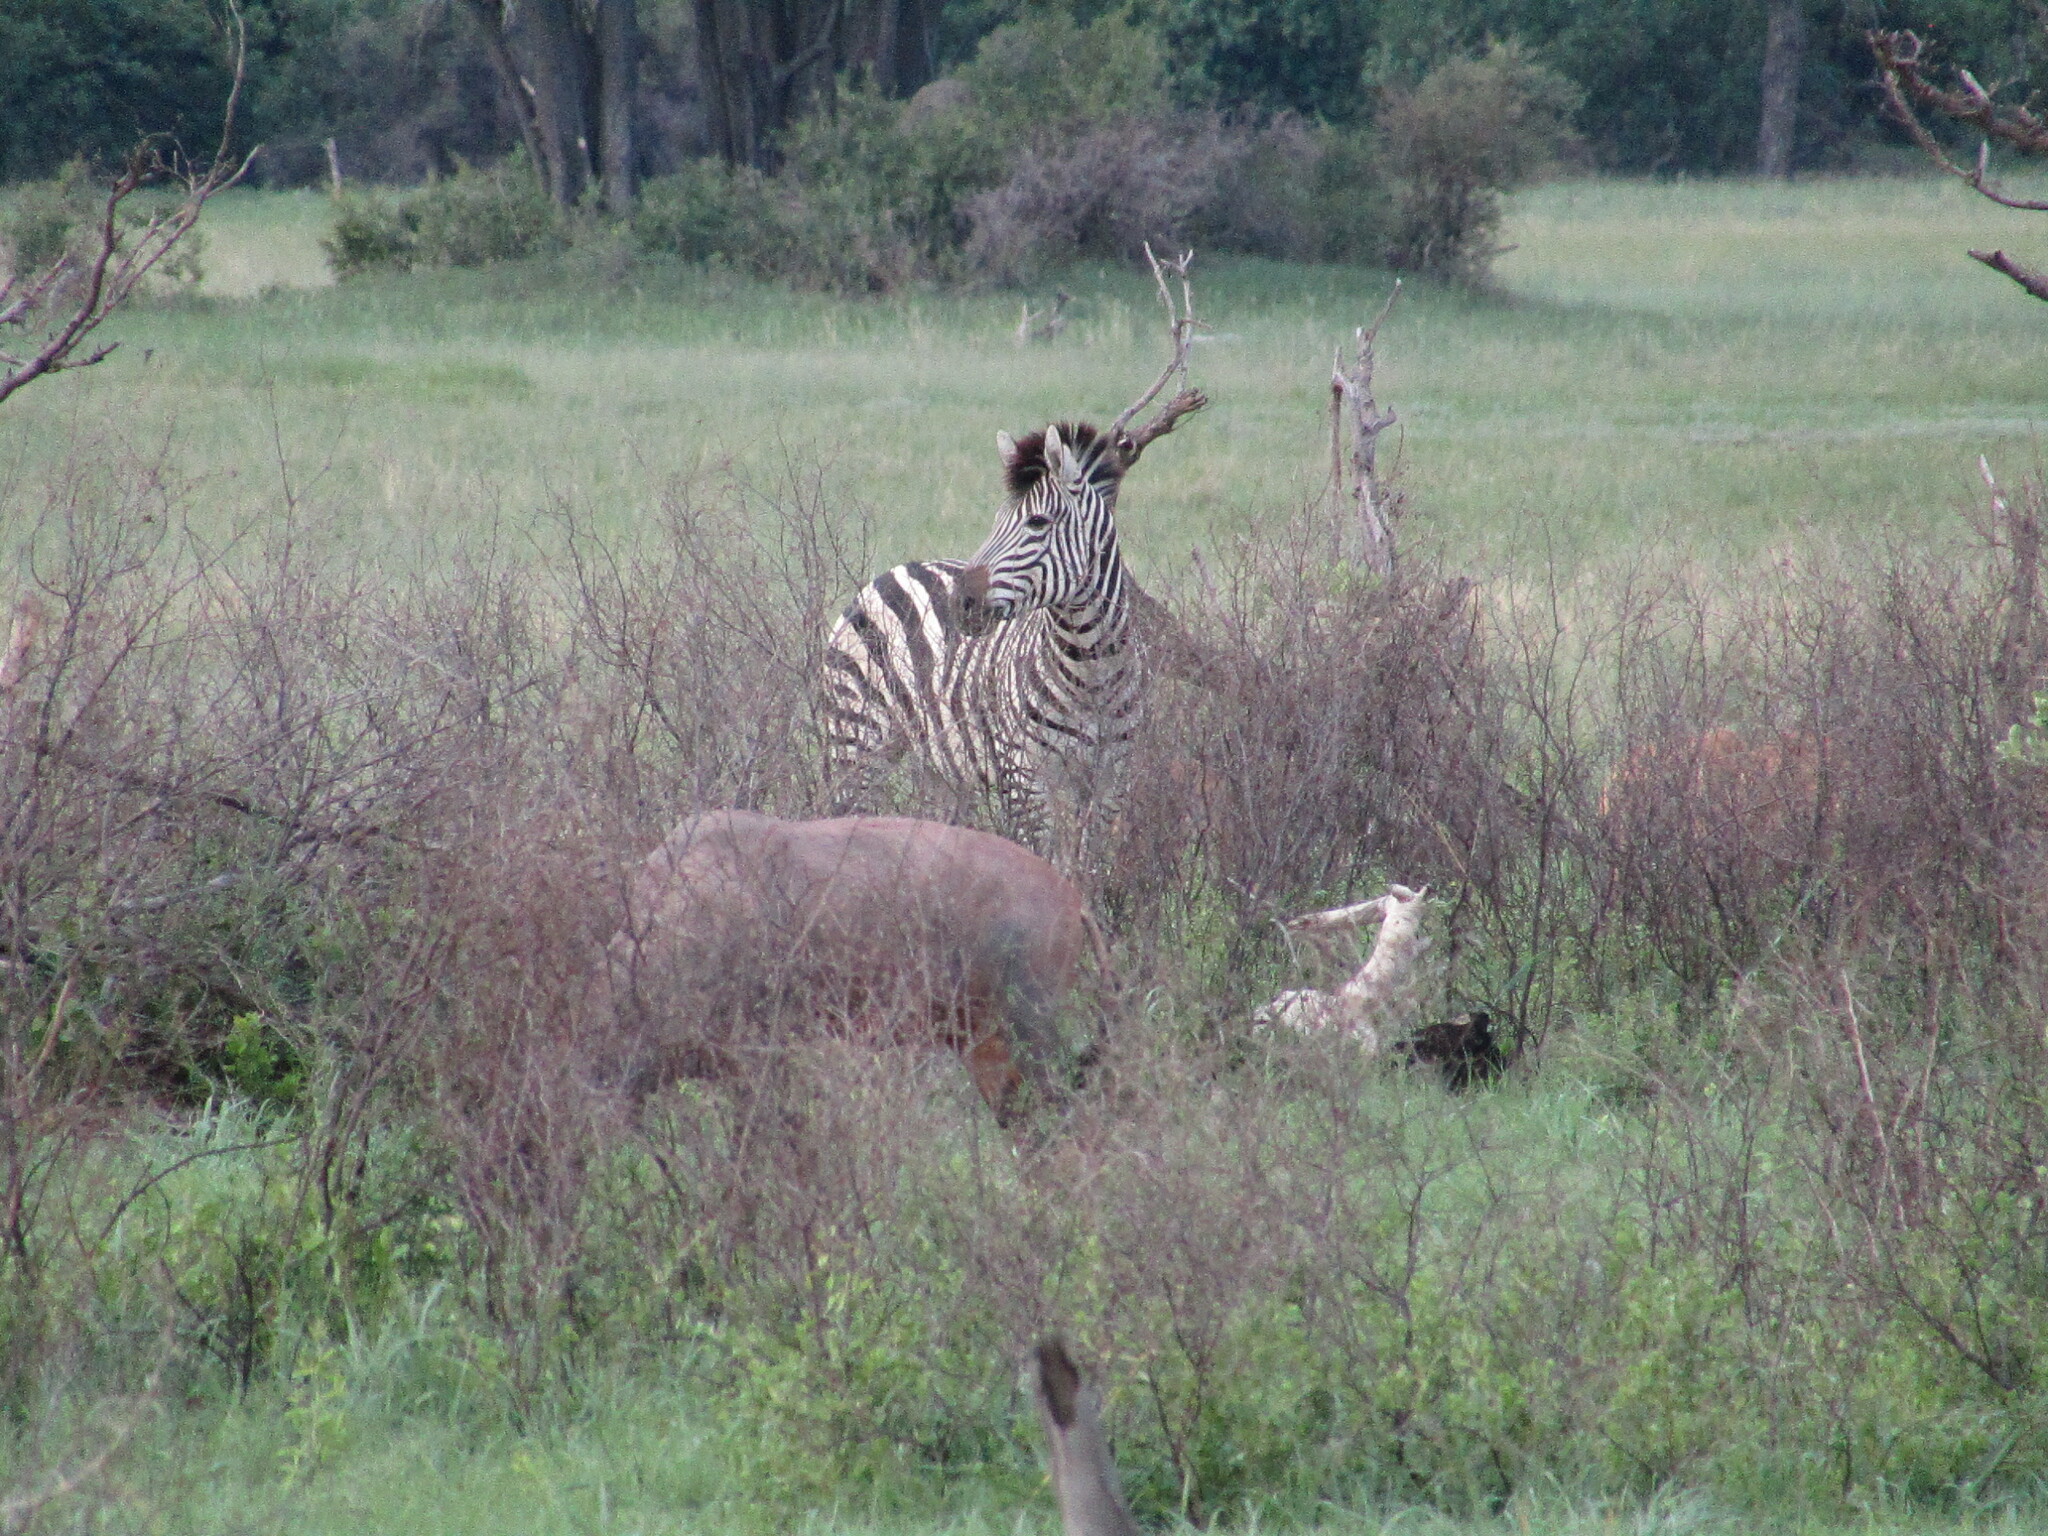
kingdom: Animalia
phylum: Chordata
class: Mammalia
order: Perissodactyla
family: Equidae
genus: Equus
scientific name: Equus quagga
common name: Plains zebra
